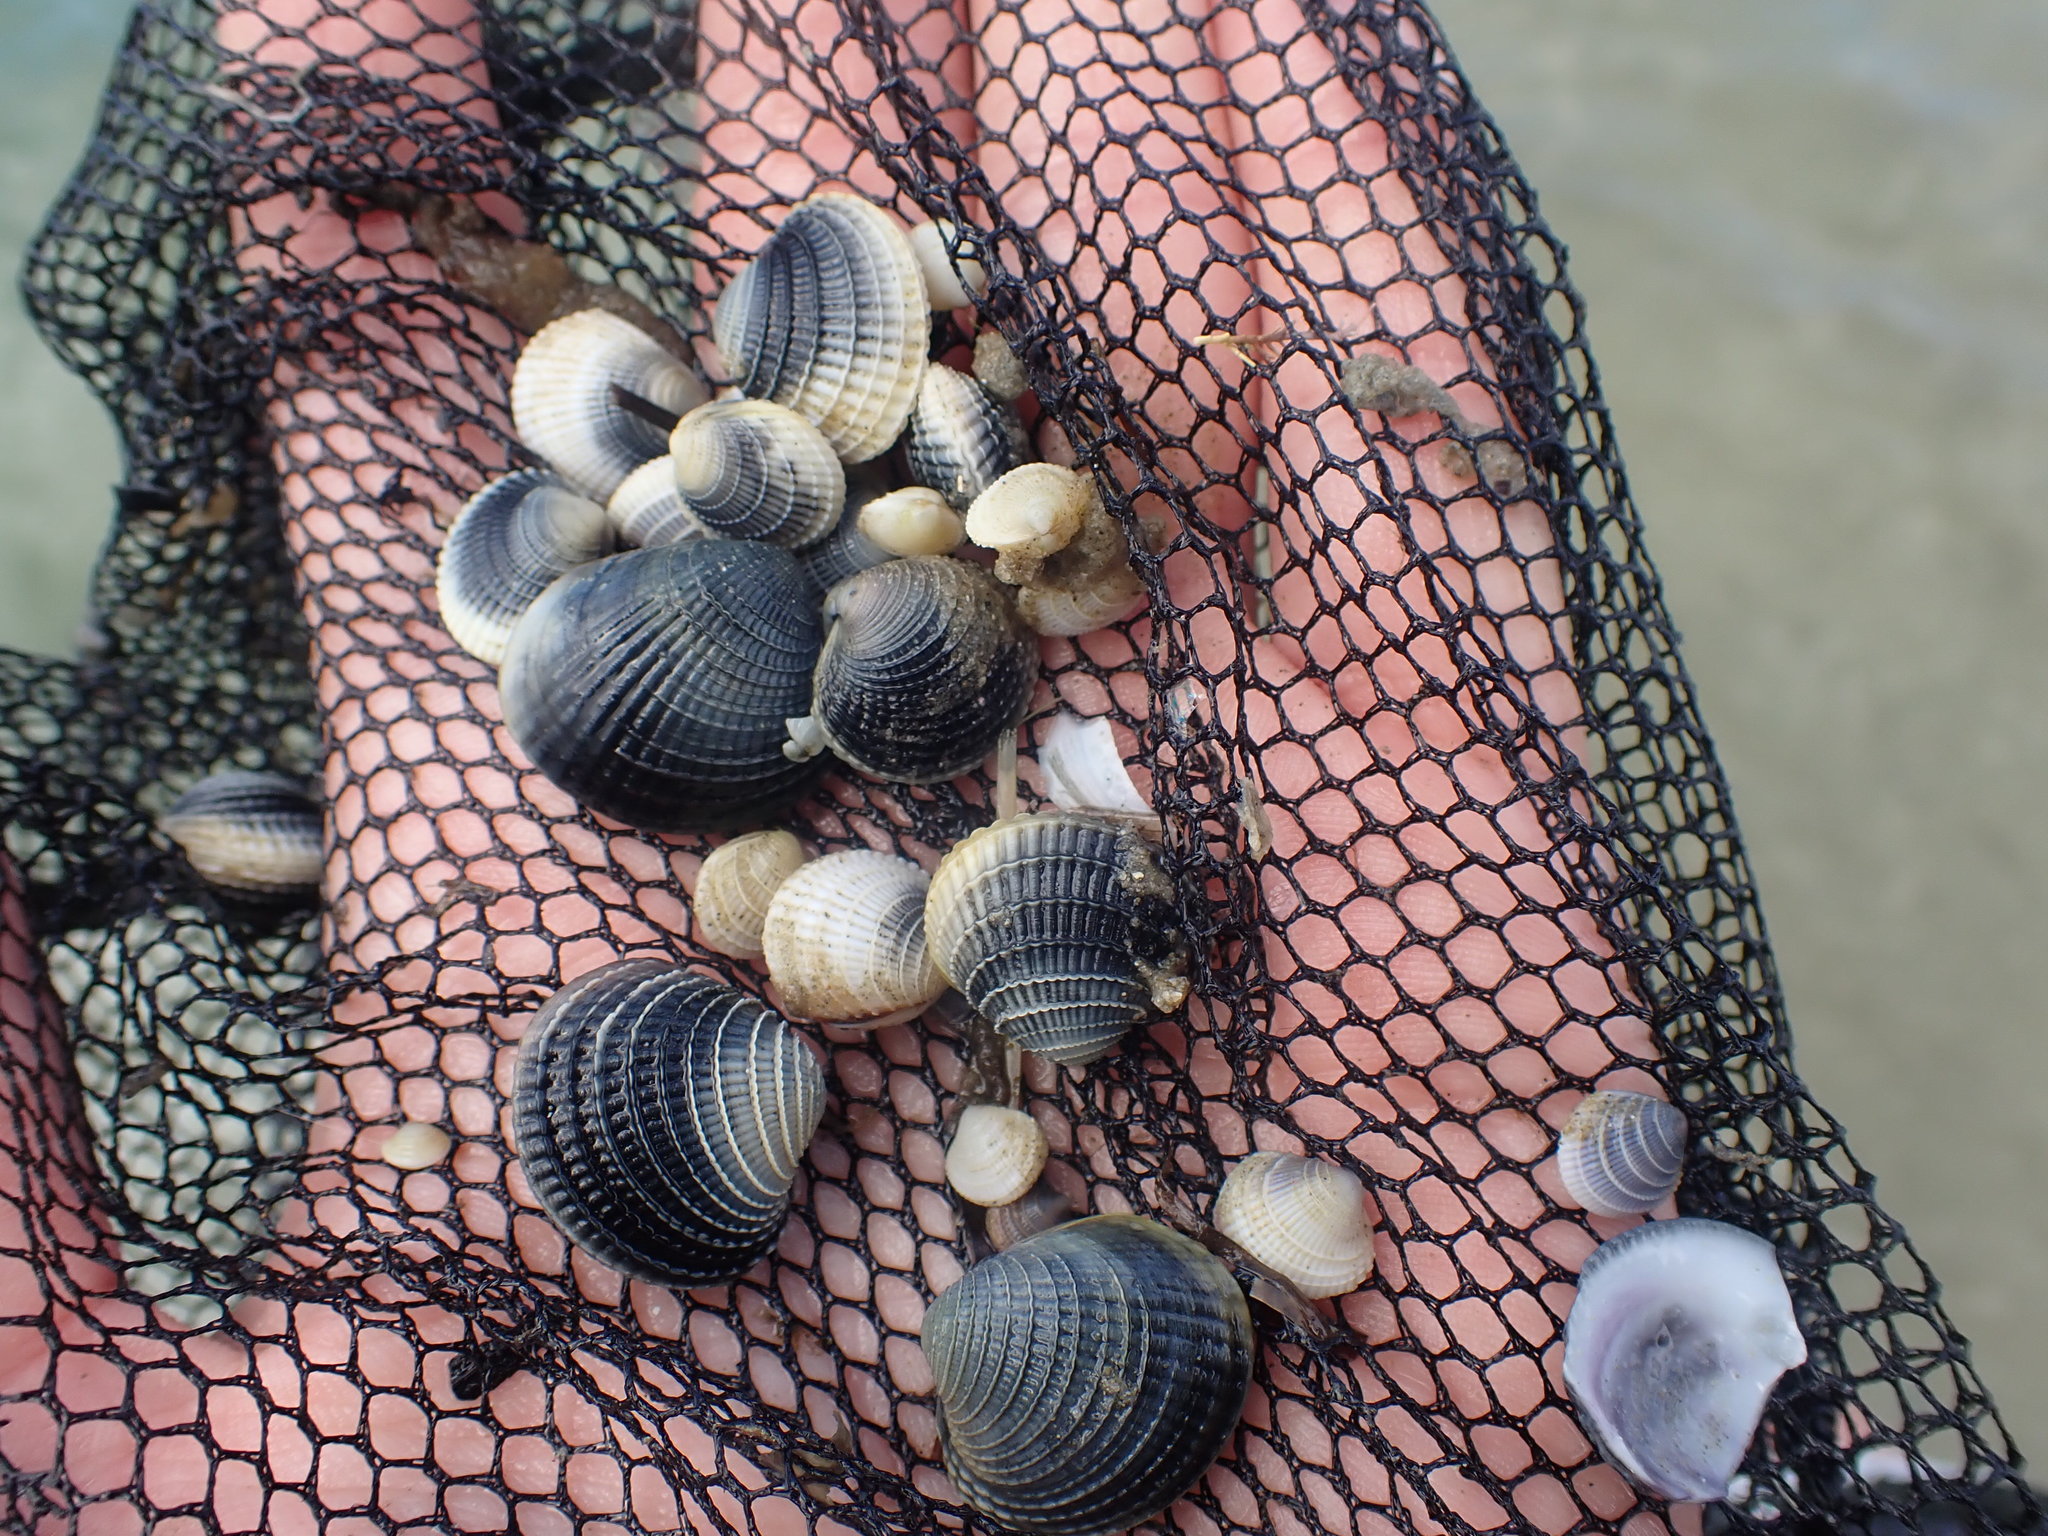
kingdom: Animalia
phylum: Mollusca
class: Bivalvia
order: Venerida
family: Veneridae
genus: Austrovenus
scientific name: Austrovenus stutchburyi
